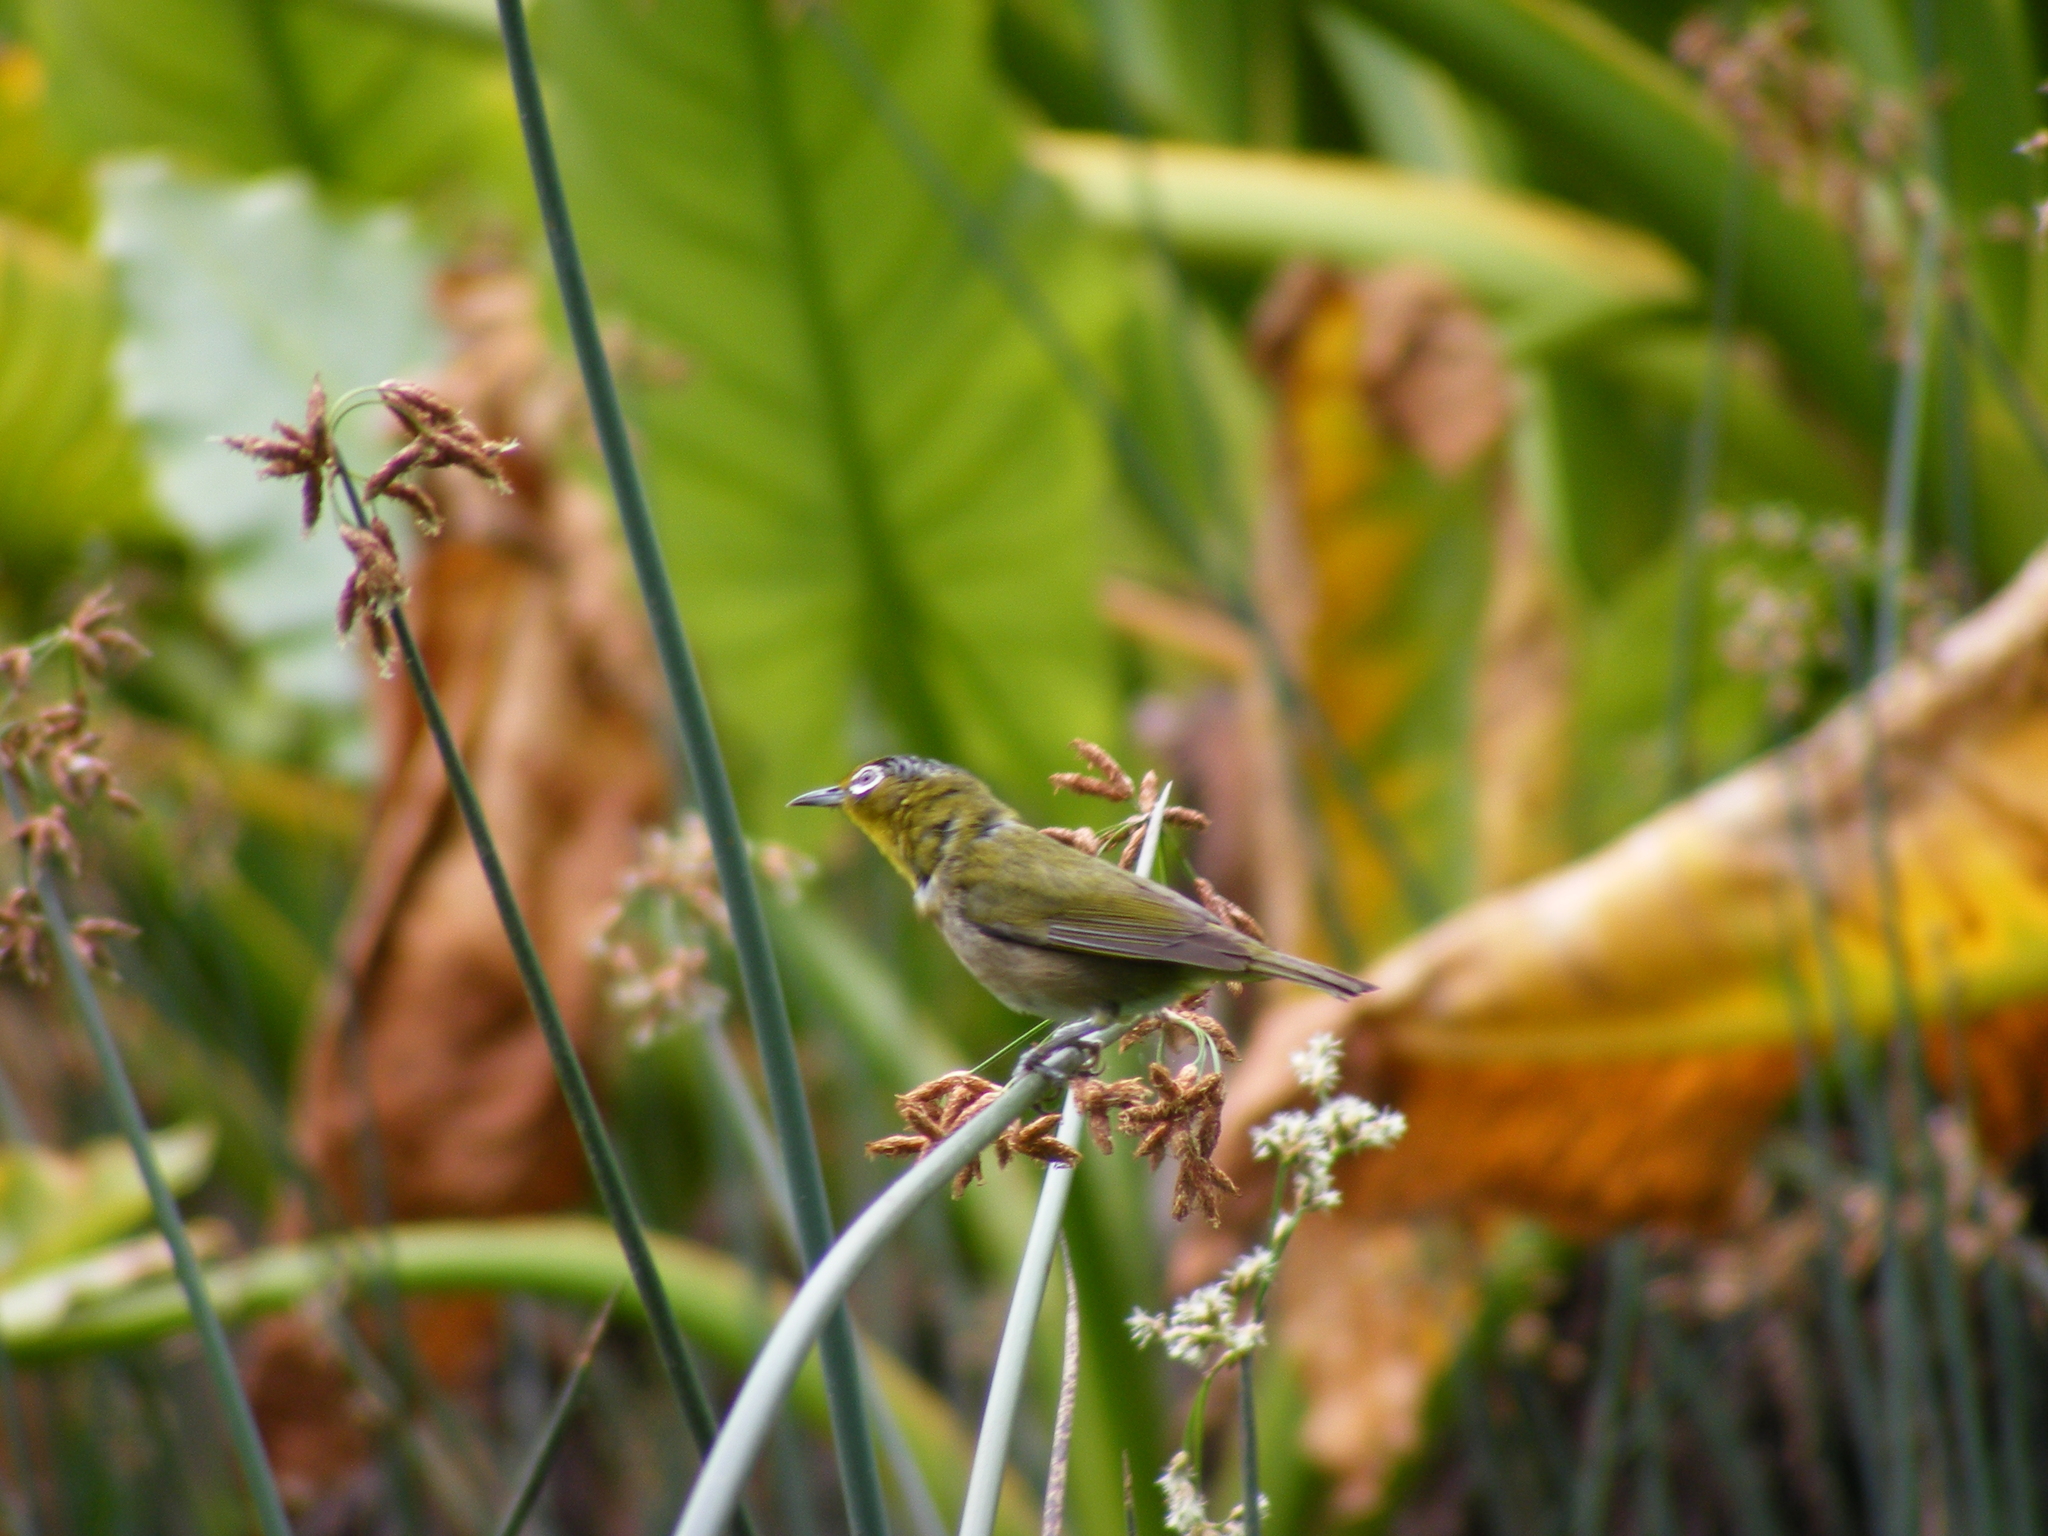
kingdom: Animalia
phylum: Chordata
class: Aves
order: Passeriformes
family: Zosteropidae
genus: Zosterops
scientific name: Zosterops japonicus
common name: Japanese white-eye
